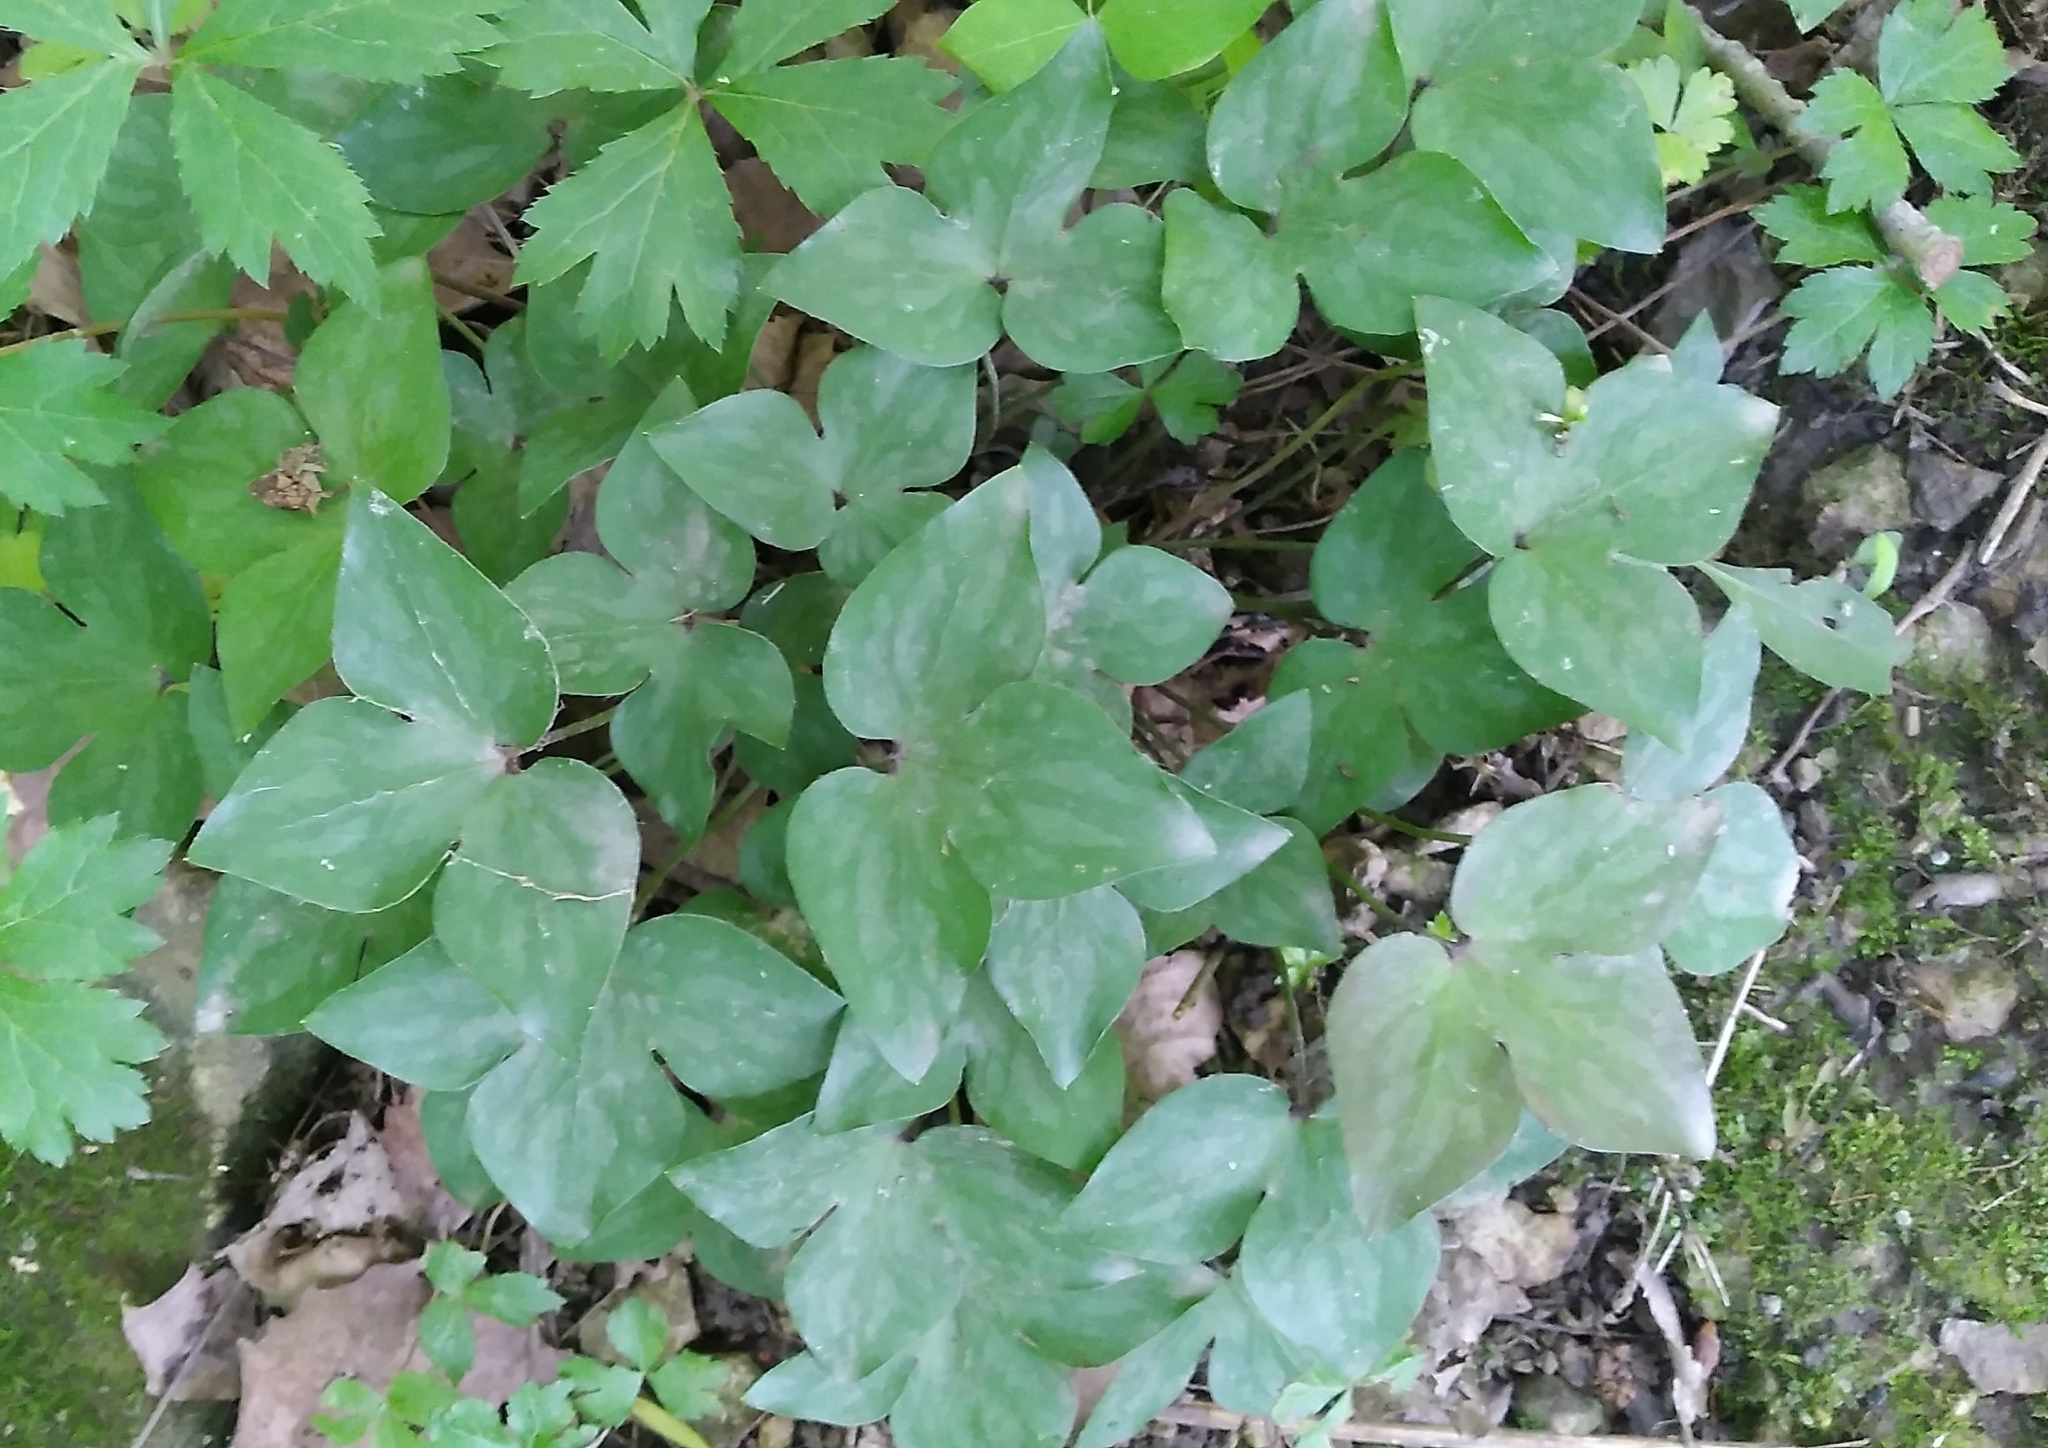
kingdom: Plantae
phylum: Tracheophyta
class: Magnoliopsida
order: Ranunculales
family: Ranunculaceae
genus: Hepatica
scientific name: Hepatica acutiloba
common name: Sharp-lobed hepatica
